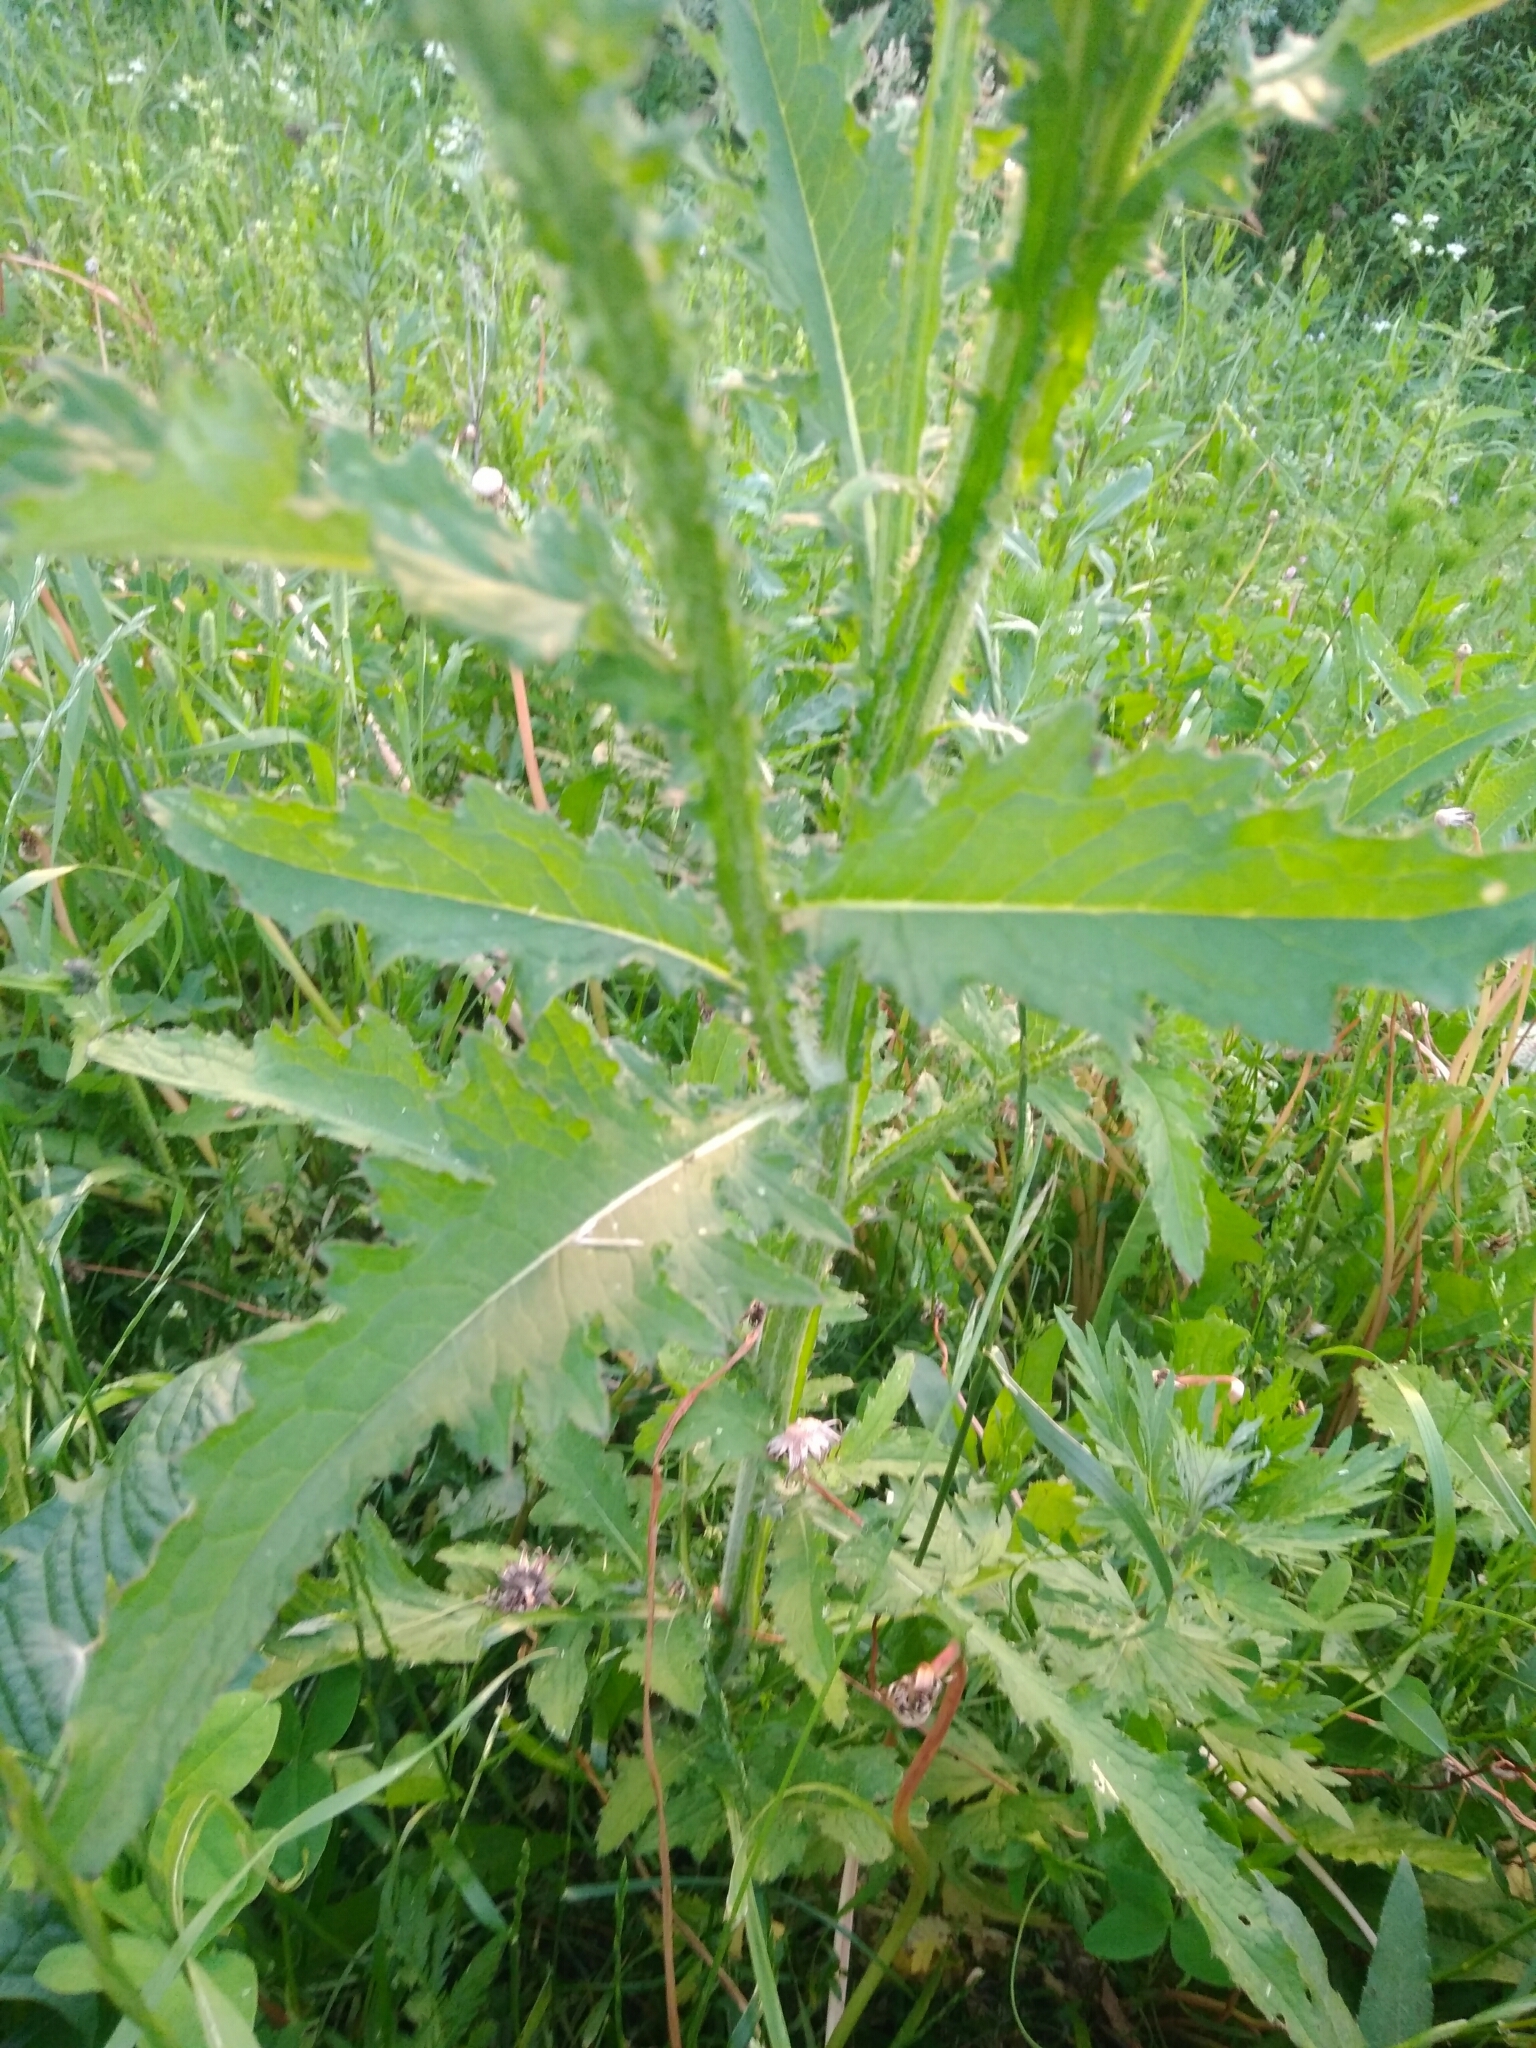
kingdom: Plantae
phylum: Tracheophyta
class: Magnoliopsida
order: Asterales
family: Asteraceae
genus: Carduus
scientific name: Carduus crispus
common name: Welted thistle
